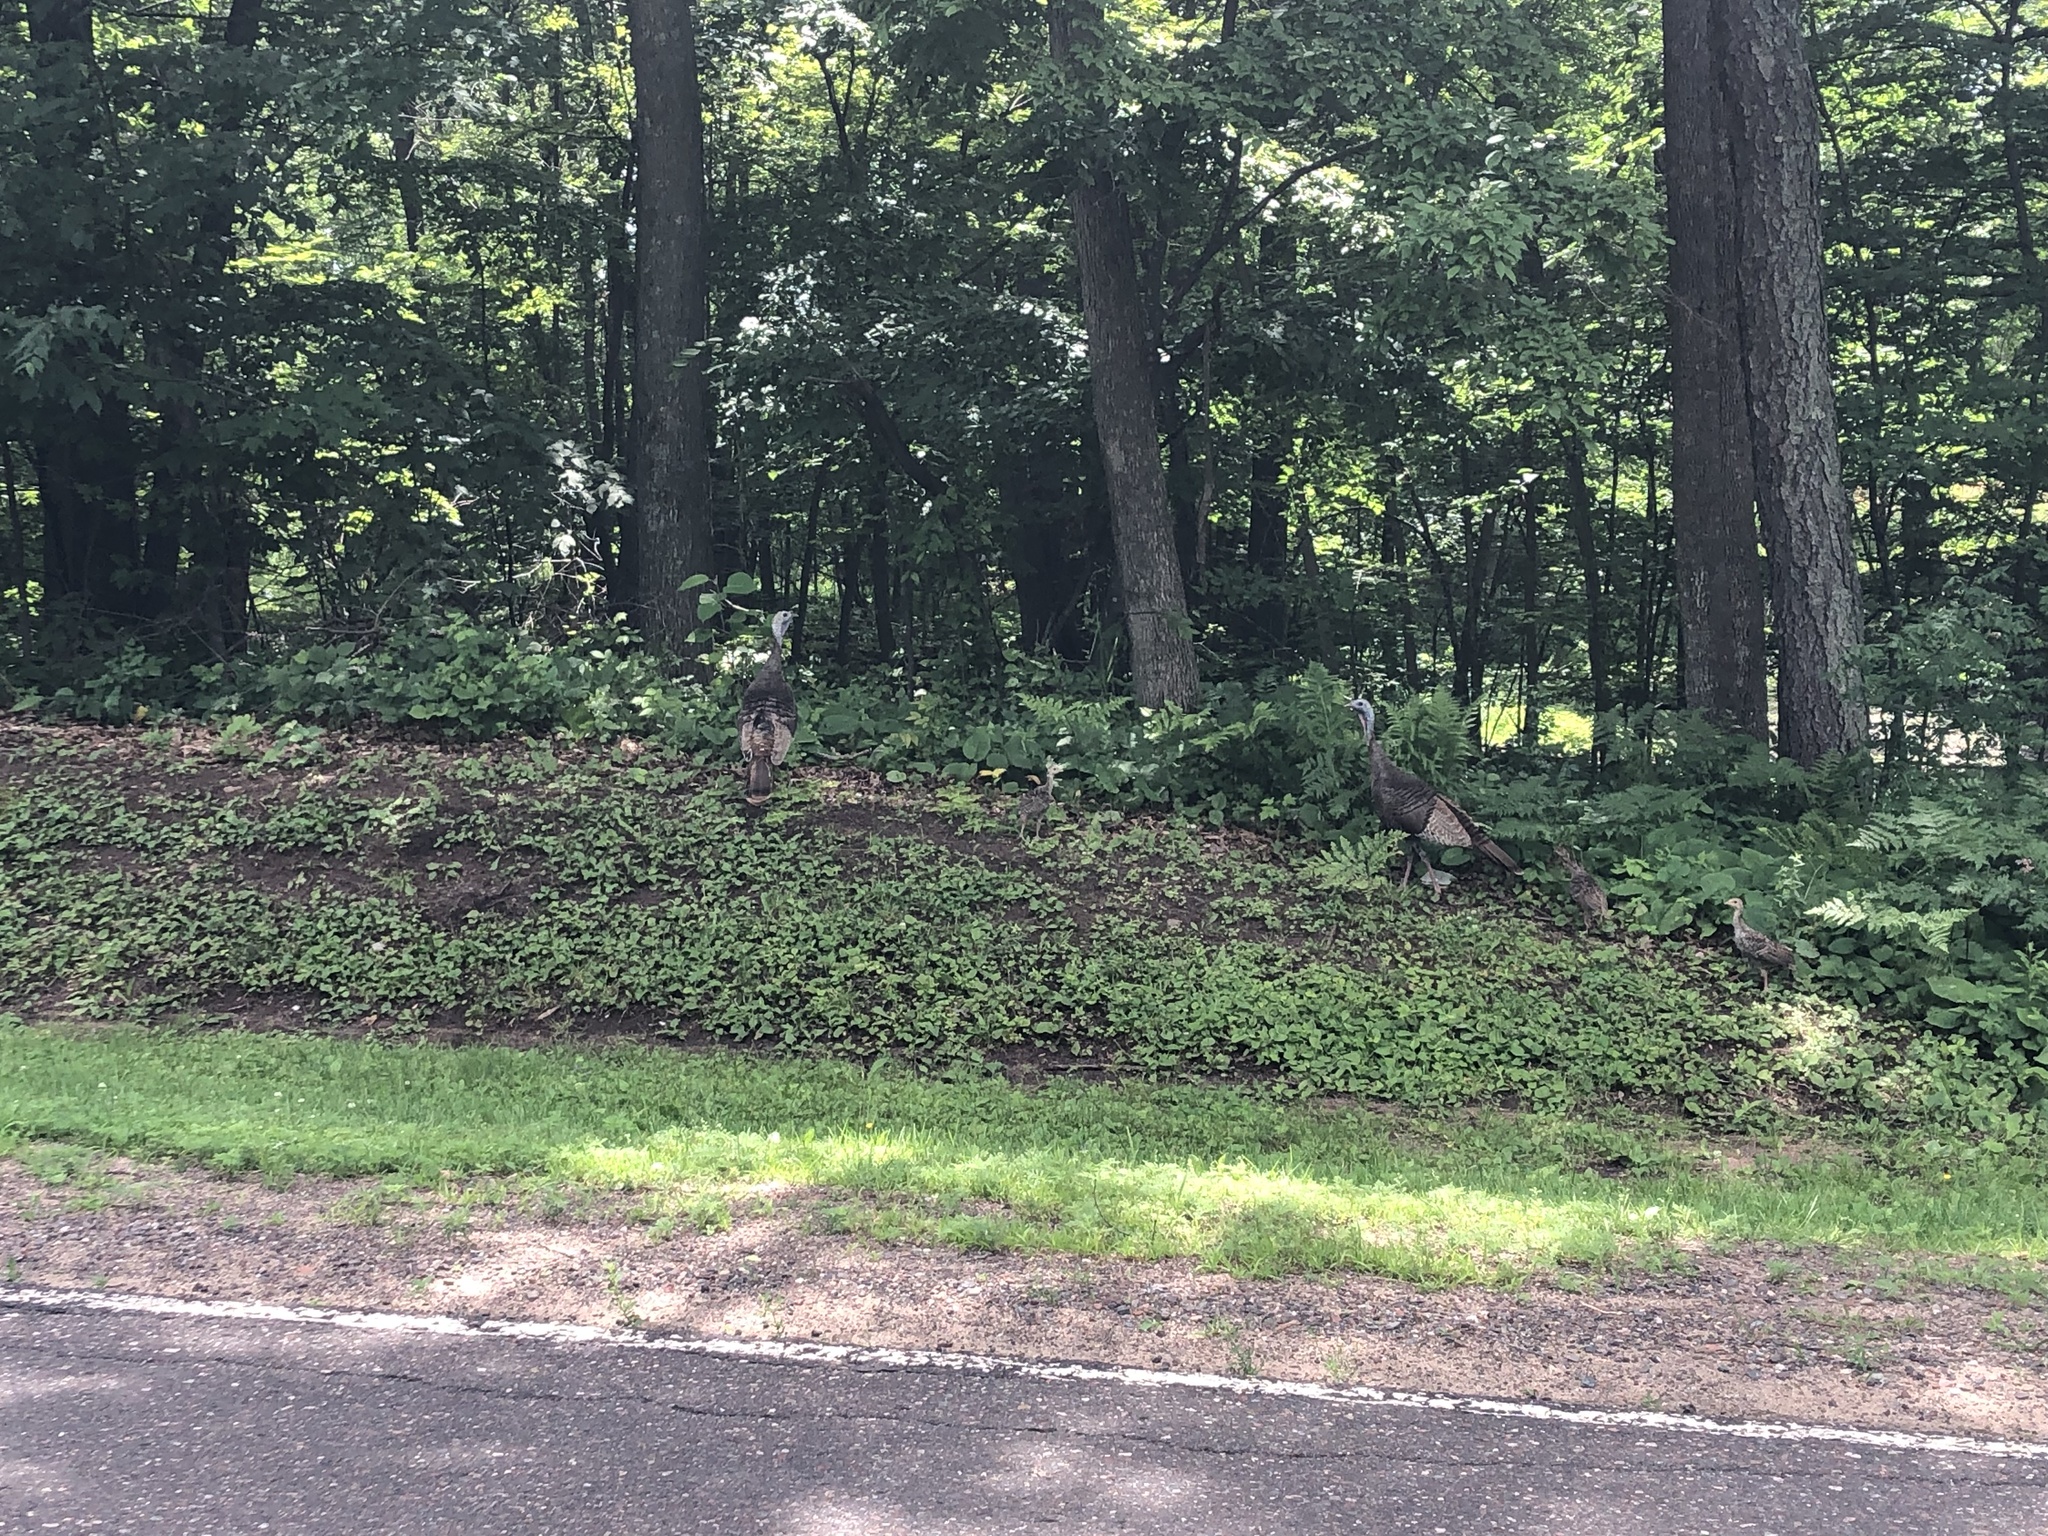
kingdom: Animalia
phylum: Chordata
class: Aves
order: Galliformes
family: Phasianidae
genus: Meleagris
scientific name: Meleagris gallopavo
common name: Wild turkey
